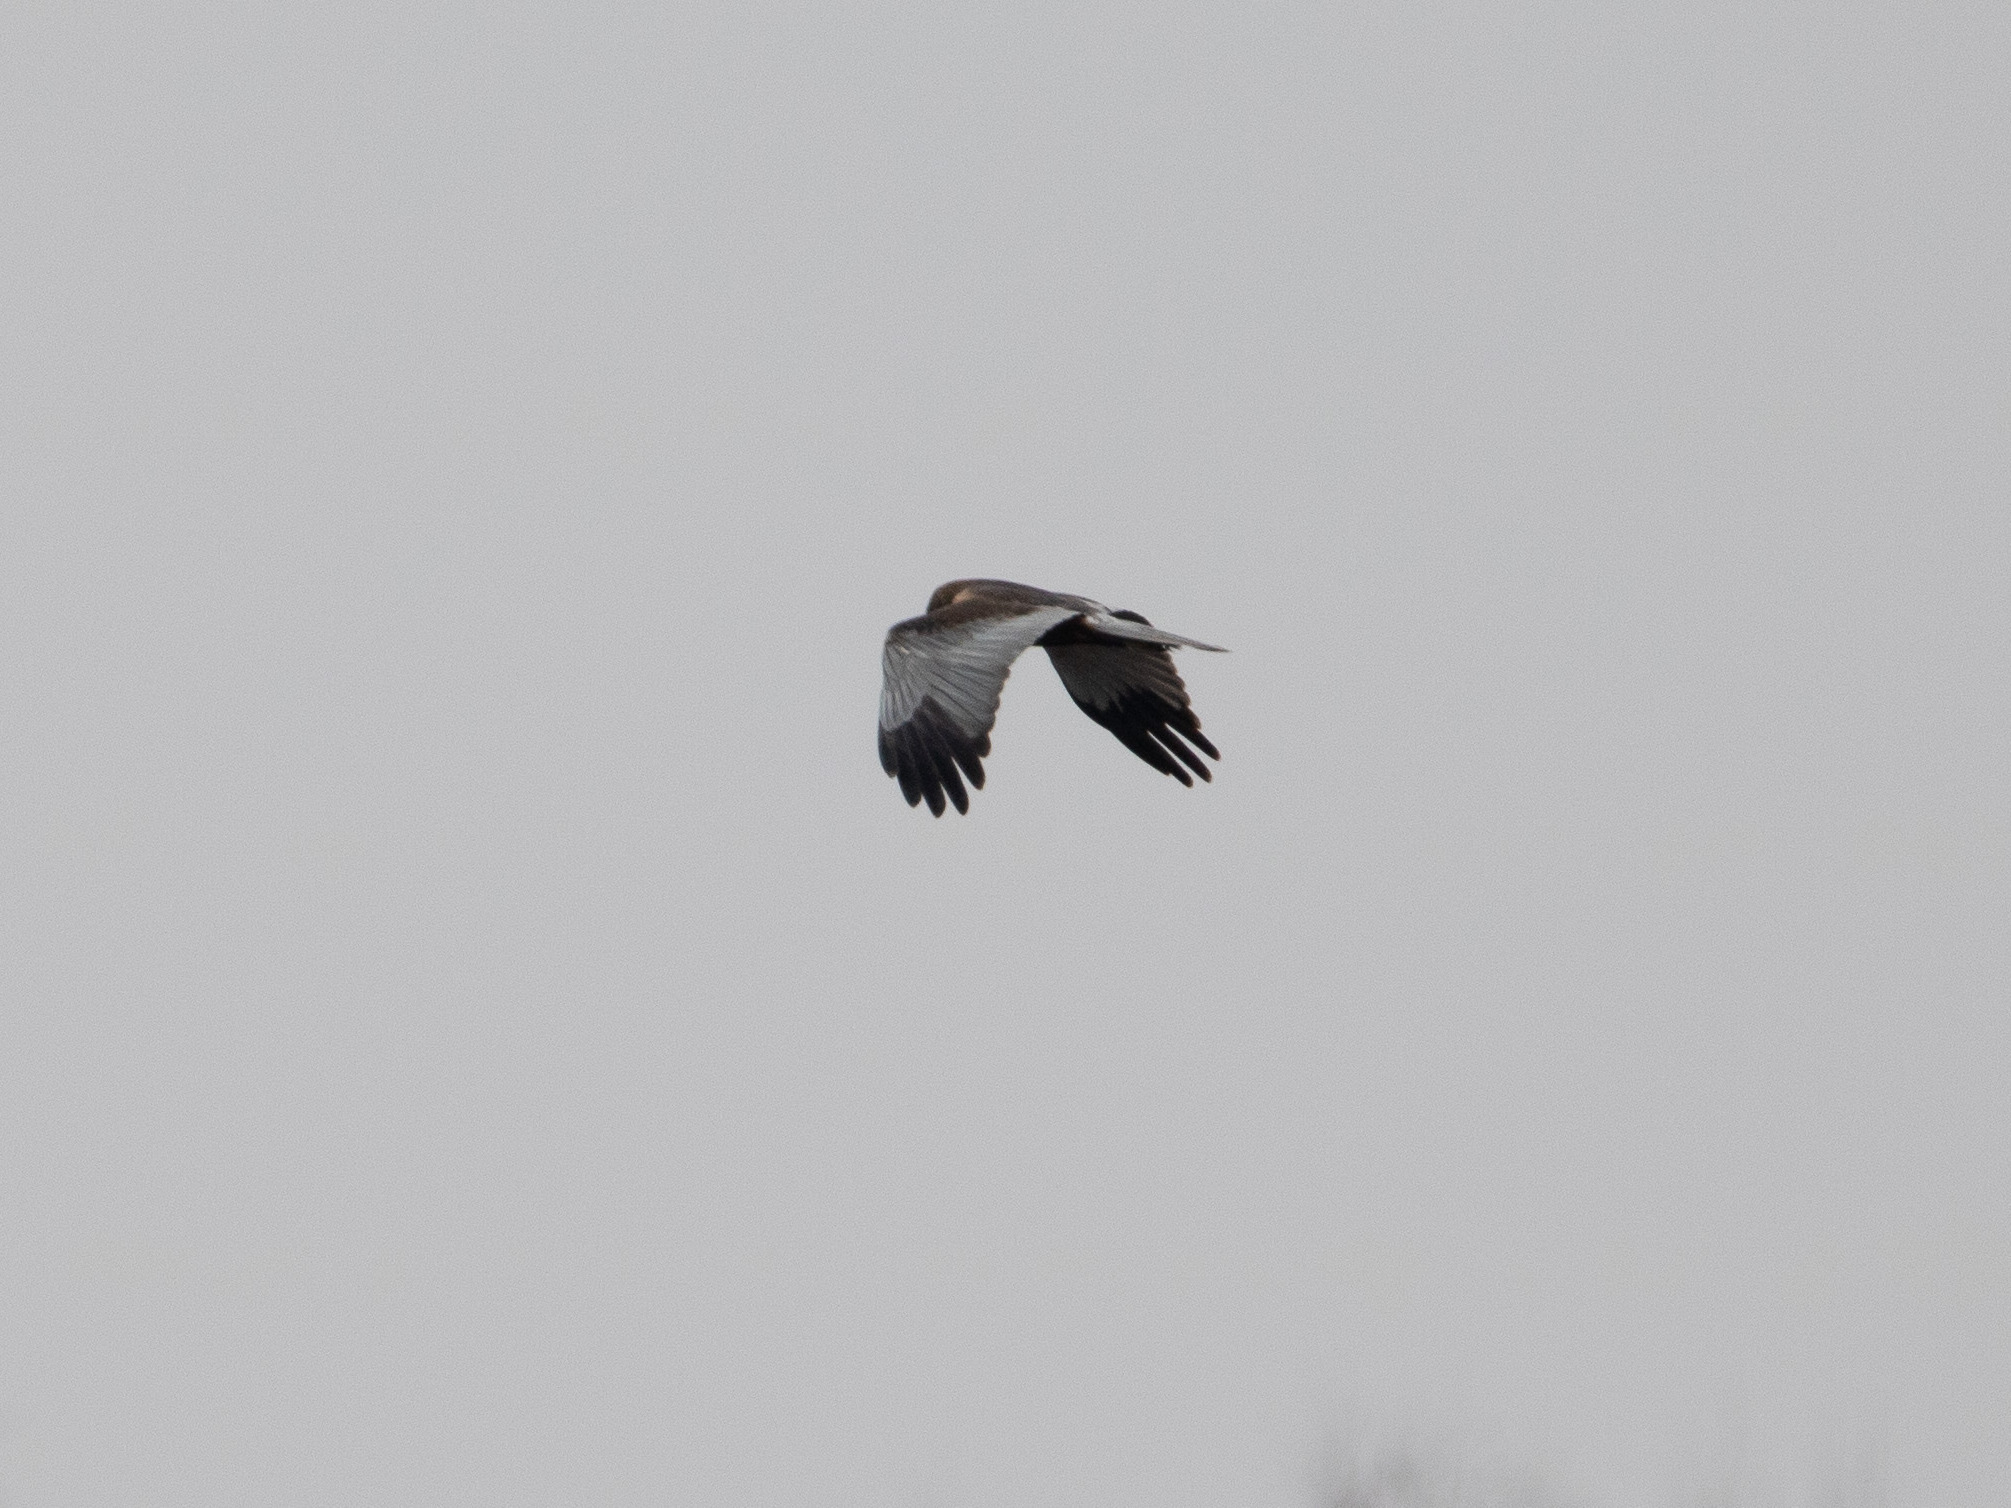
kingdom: Animalia
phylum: Chordata
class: Aves
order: Accipitriformes
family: Accipitridae
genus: Circus
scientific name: Circus aeruginosus
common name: Western marsh harrier
